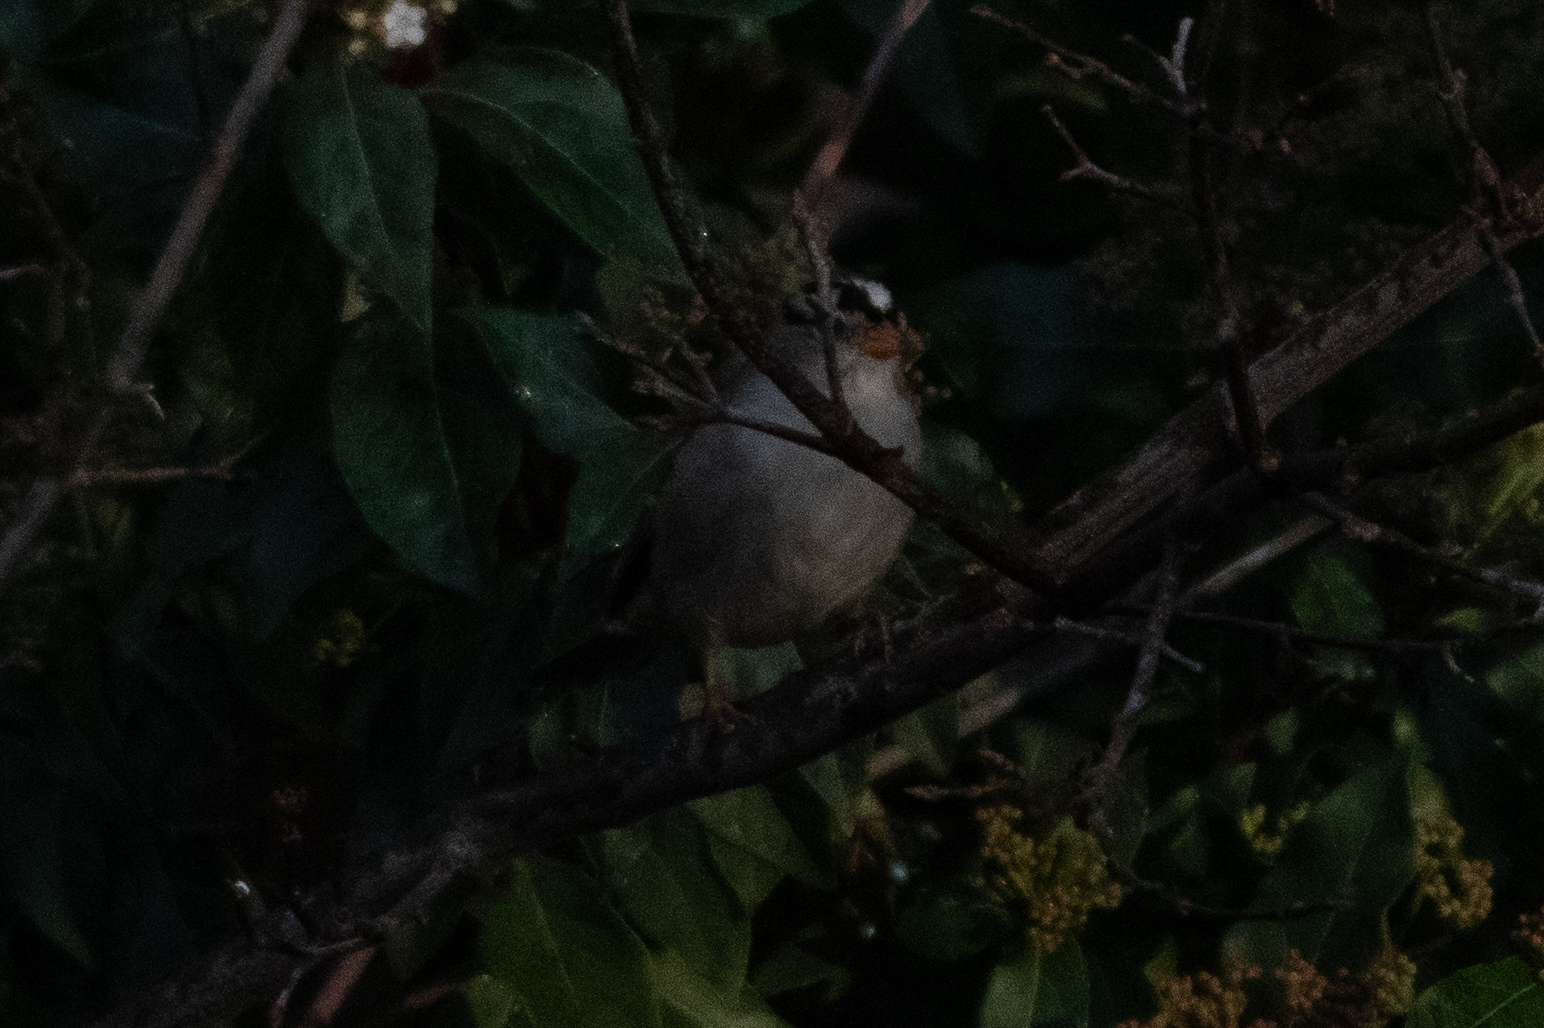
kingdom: Animalia
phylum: Chordata
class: Aves
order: Passeriformes
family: Passerellidae
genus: Zonotrichia
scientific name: Zonotrichia leucophrys
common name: White-crowned sparrow
